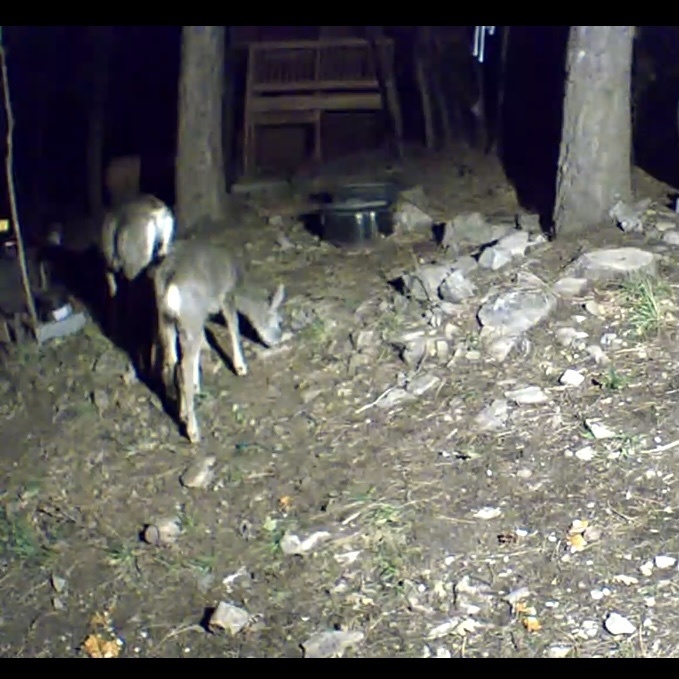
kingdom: Animalia
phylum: Chordata
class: Mammalia
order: Artiodactyla
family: Cervidae
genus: Odocoileus
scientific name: Odocoileus hemionus
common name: Mule deer
